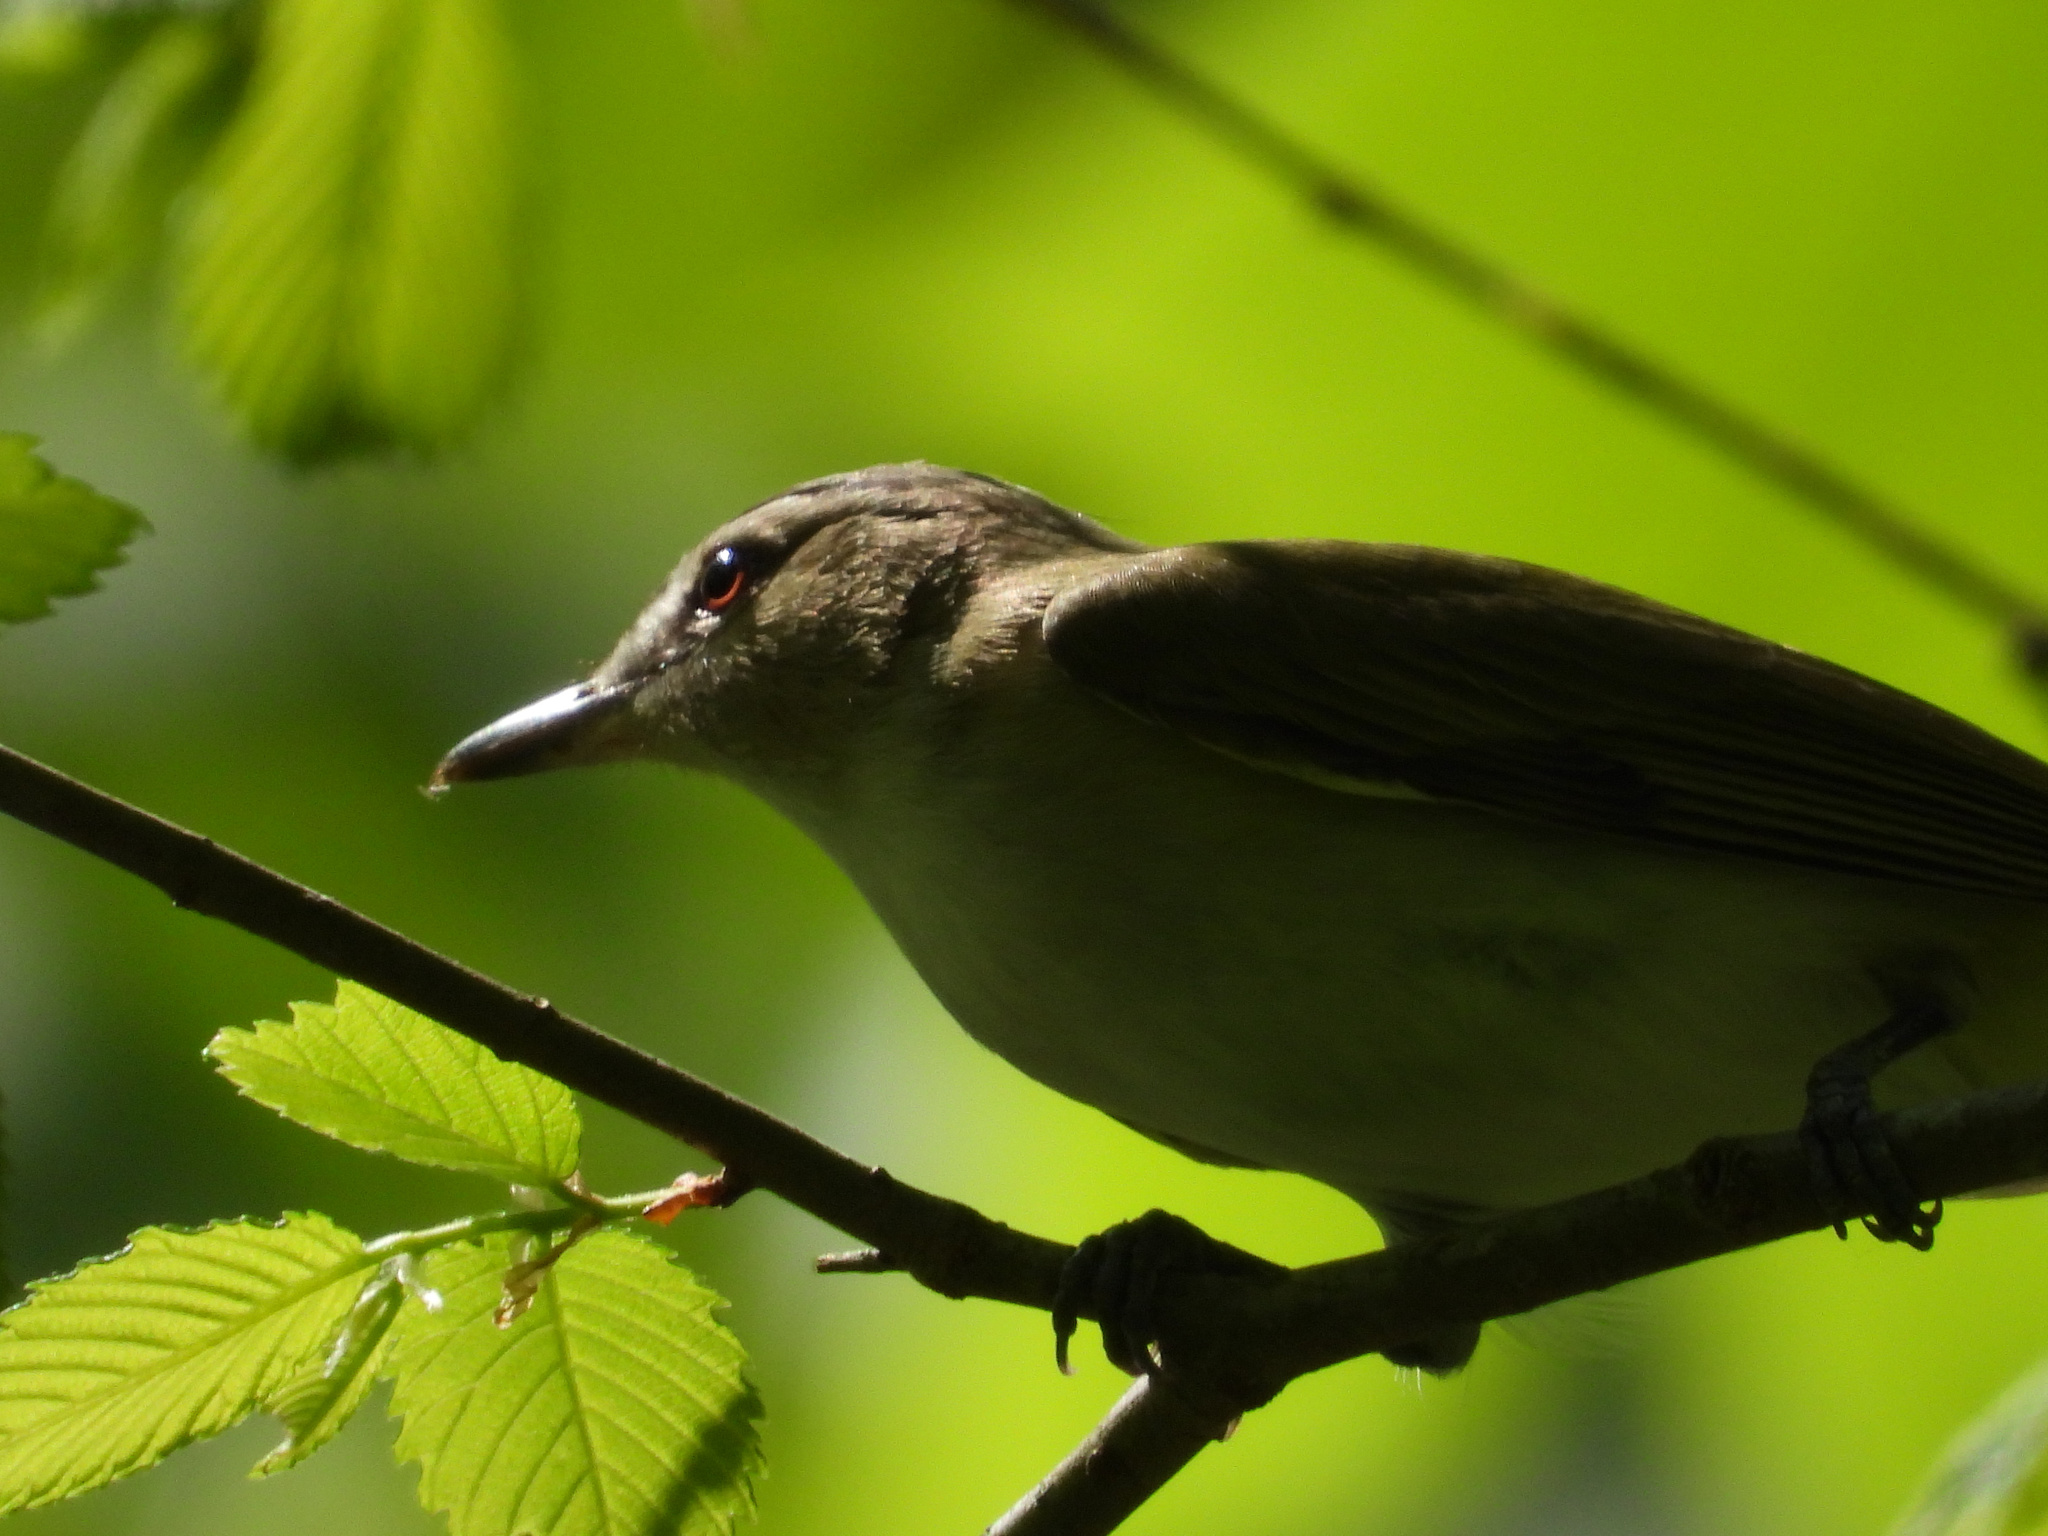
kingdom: Animalia
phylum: Chordata
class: Aves
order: Passeriformes
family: Vireonidae
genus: Vireo
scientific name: Vireo olivaceus
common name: Red-eyed vireo
